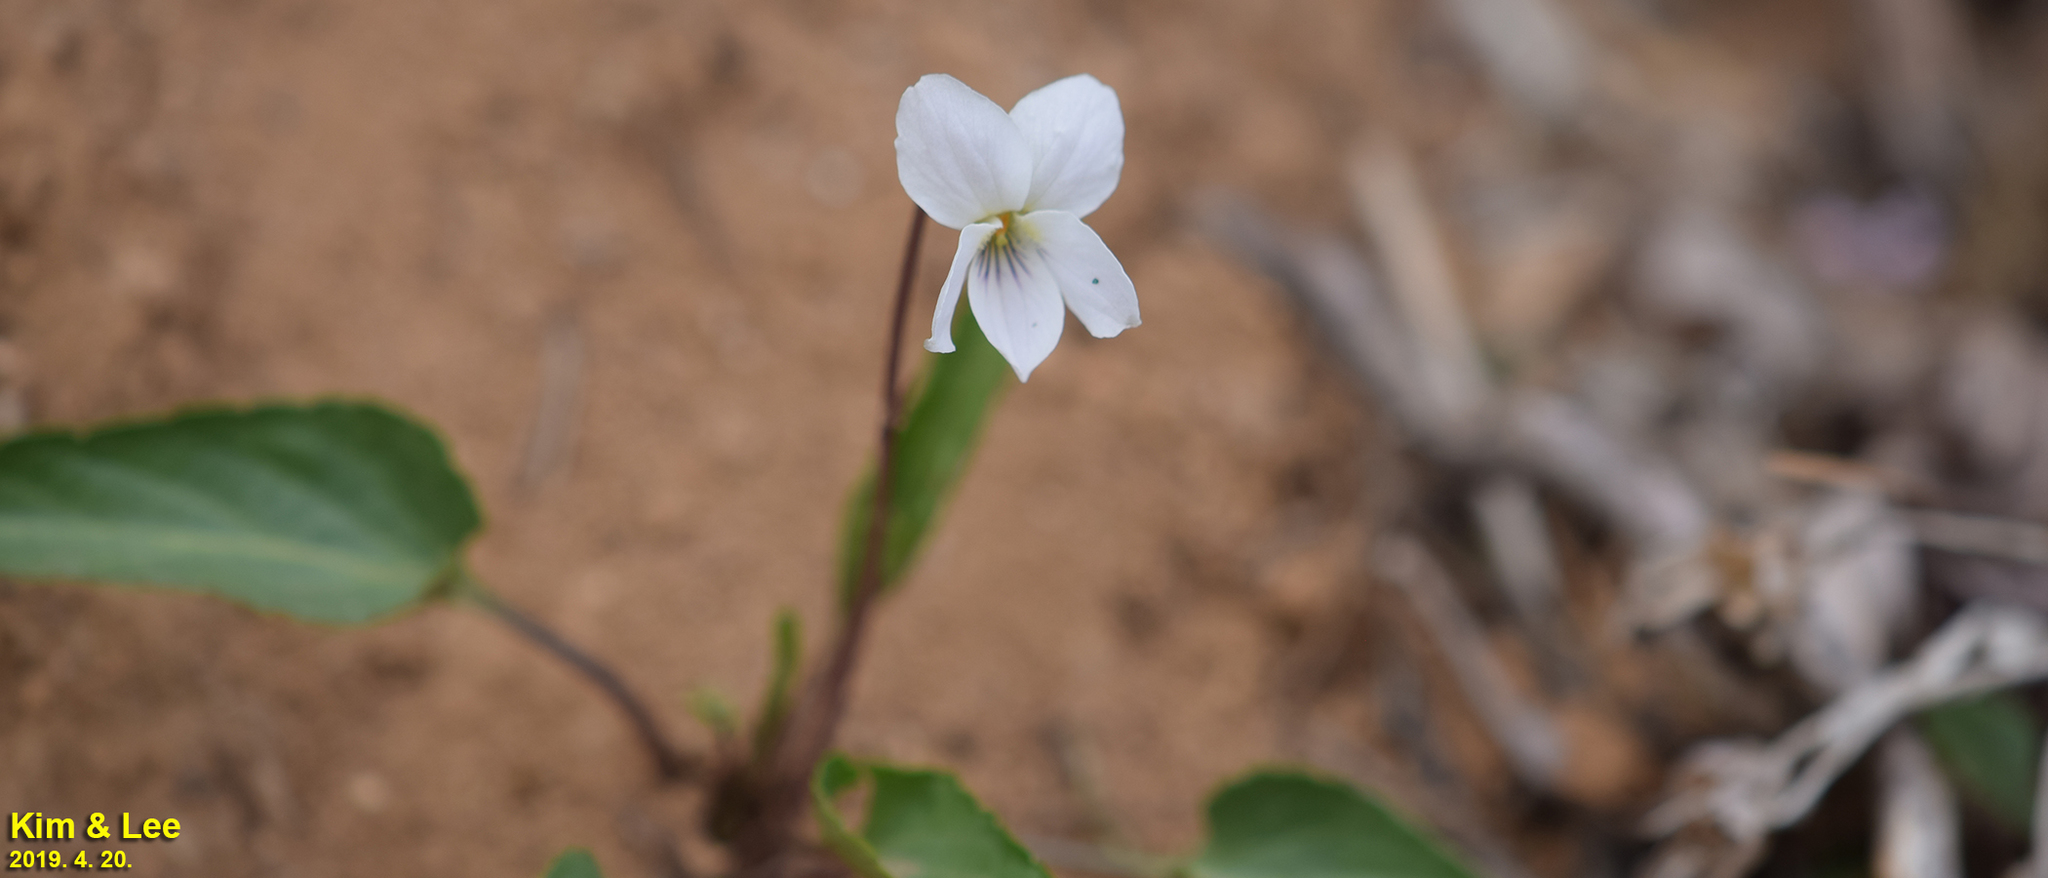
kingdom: Plantae
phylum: Tracheophyta
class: Magnoliopsida
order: Malpighiales
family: Violaceae
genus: Viola
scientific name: Viola albida
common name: Korean violet
